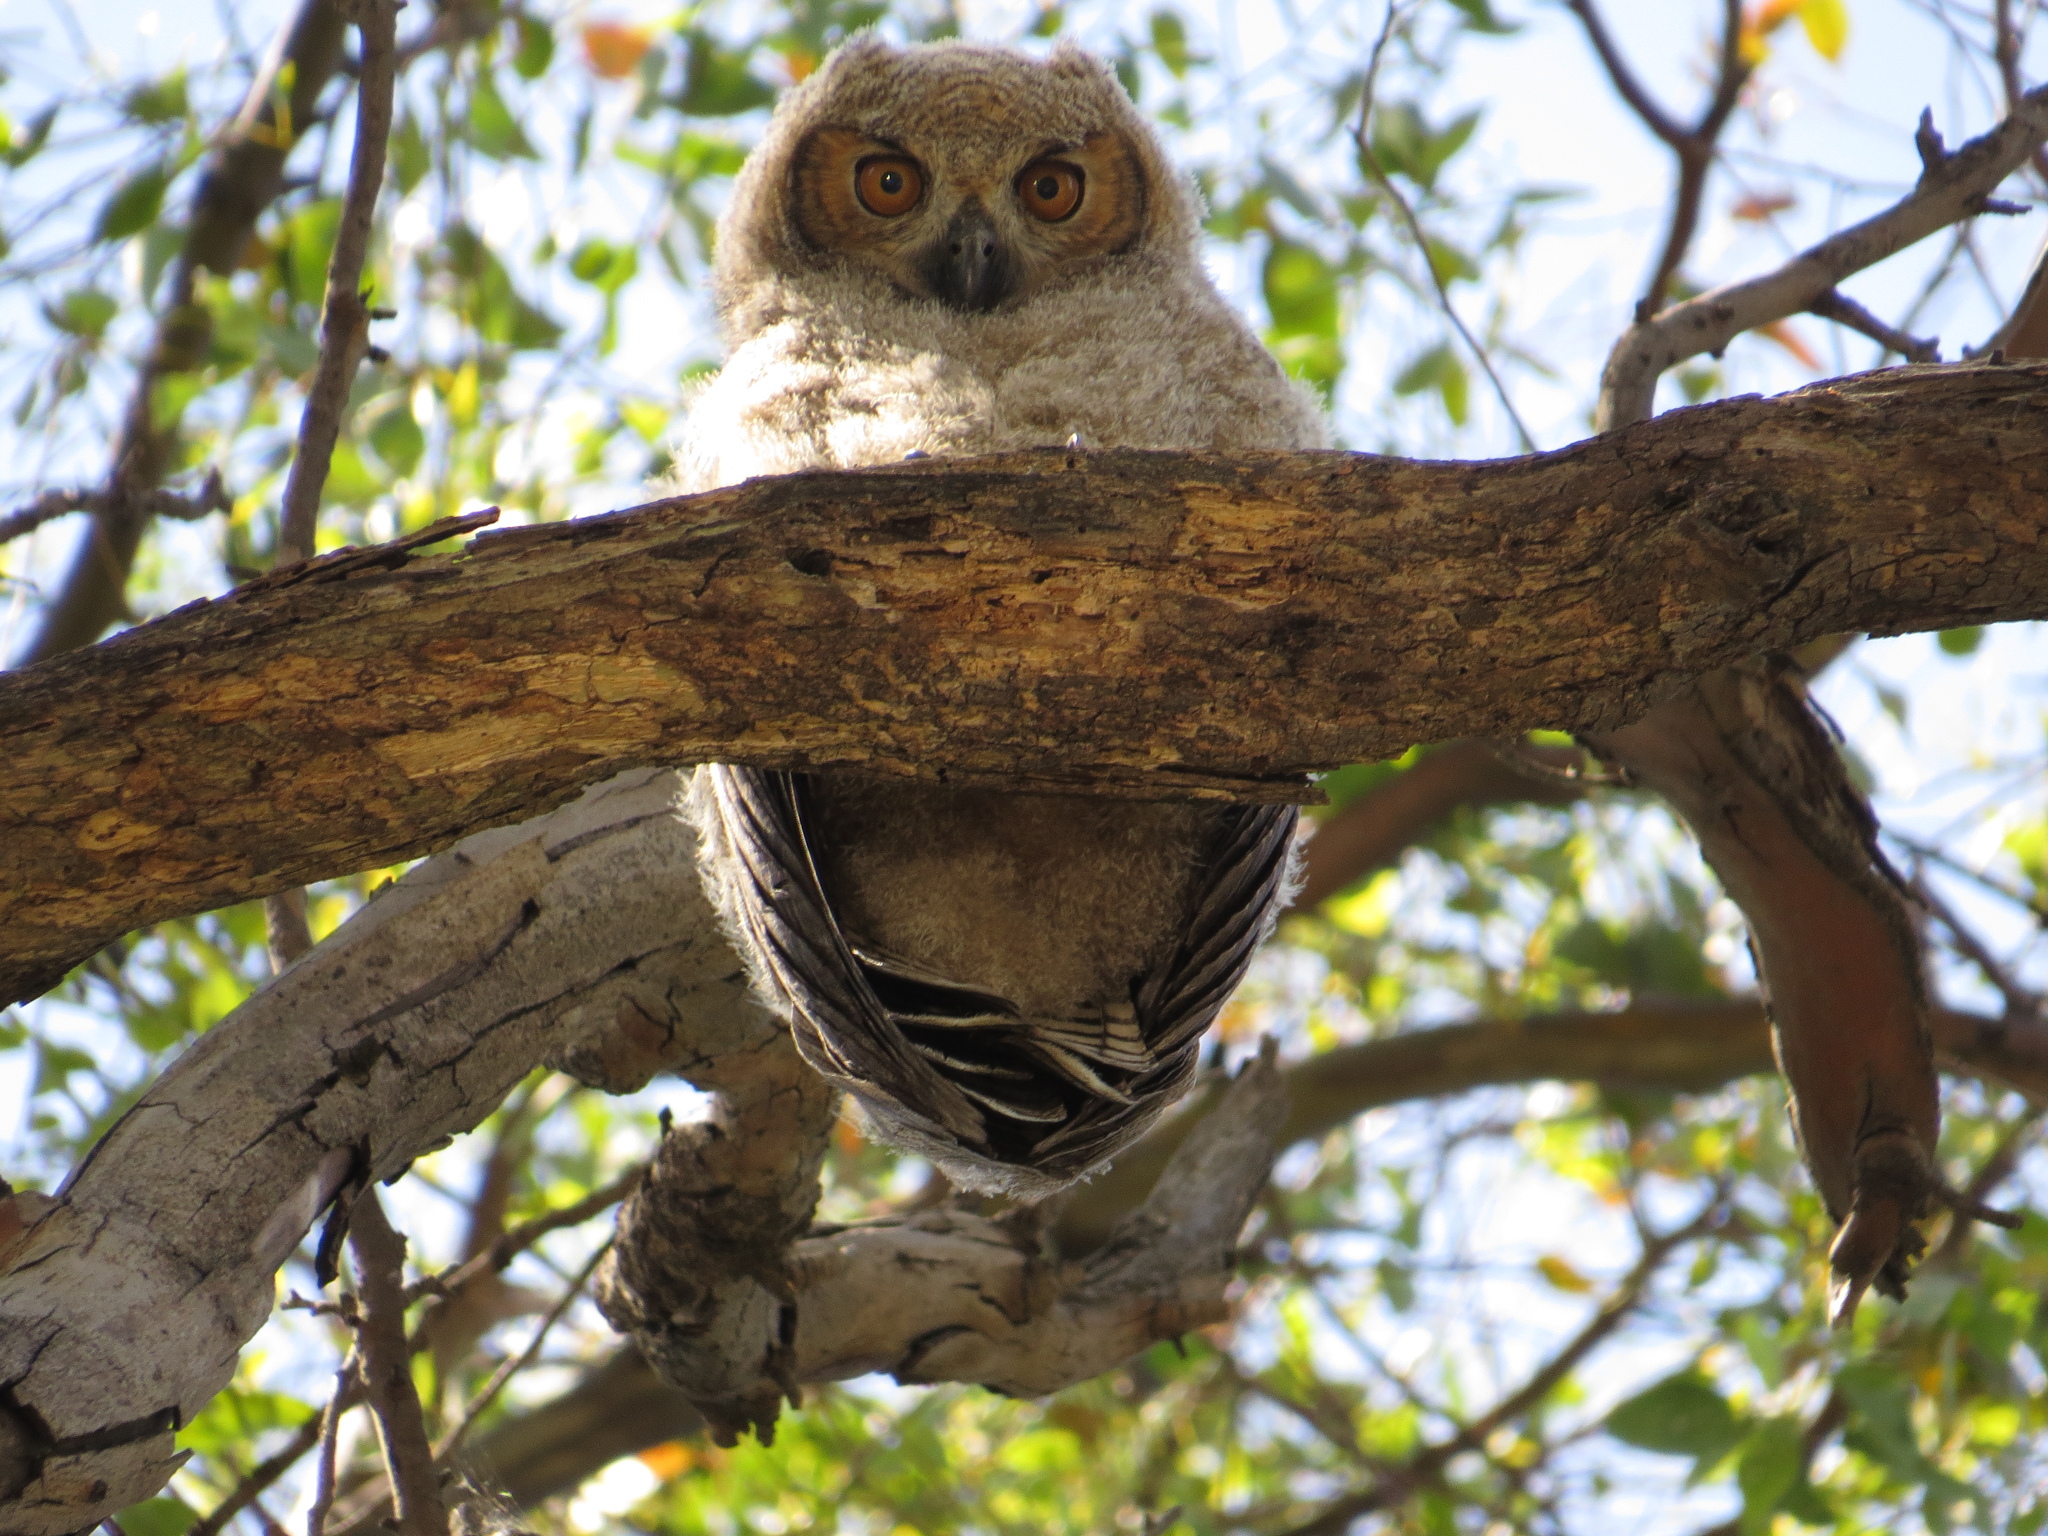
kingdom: Animalia
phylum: Chordata
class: Aves
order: Strigiformes
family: Strigidae
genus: Bubo
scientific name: Bubo virginianus
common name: Great horned owl
